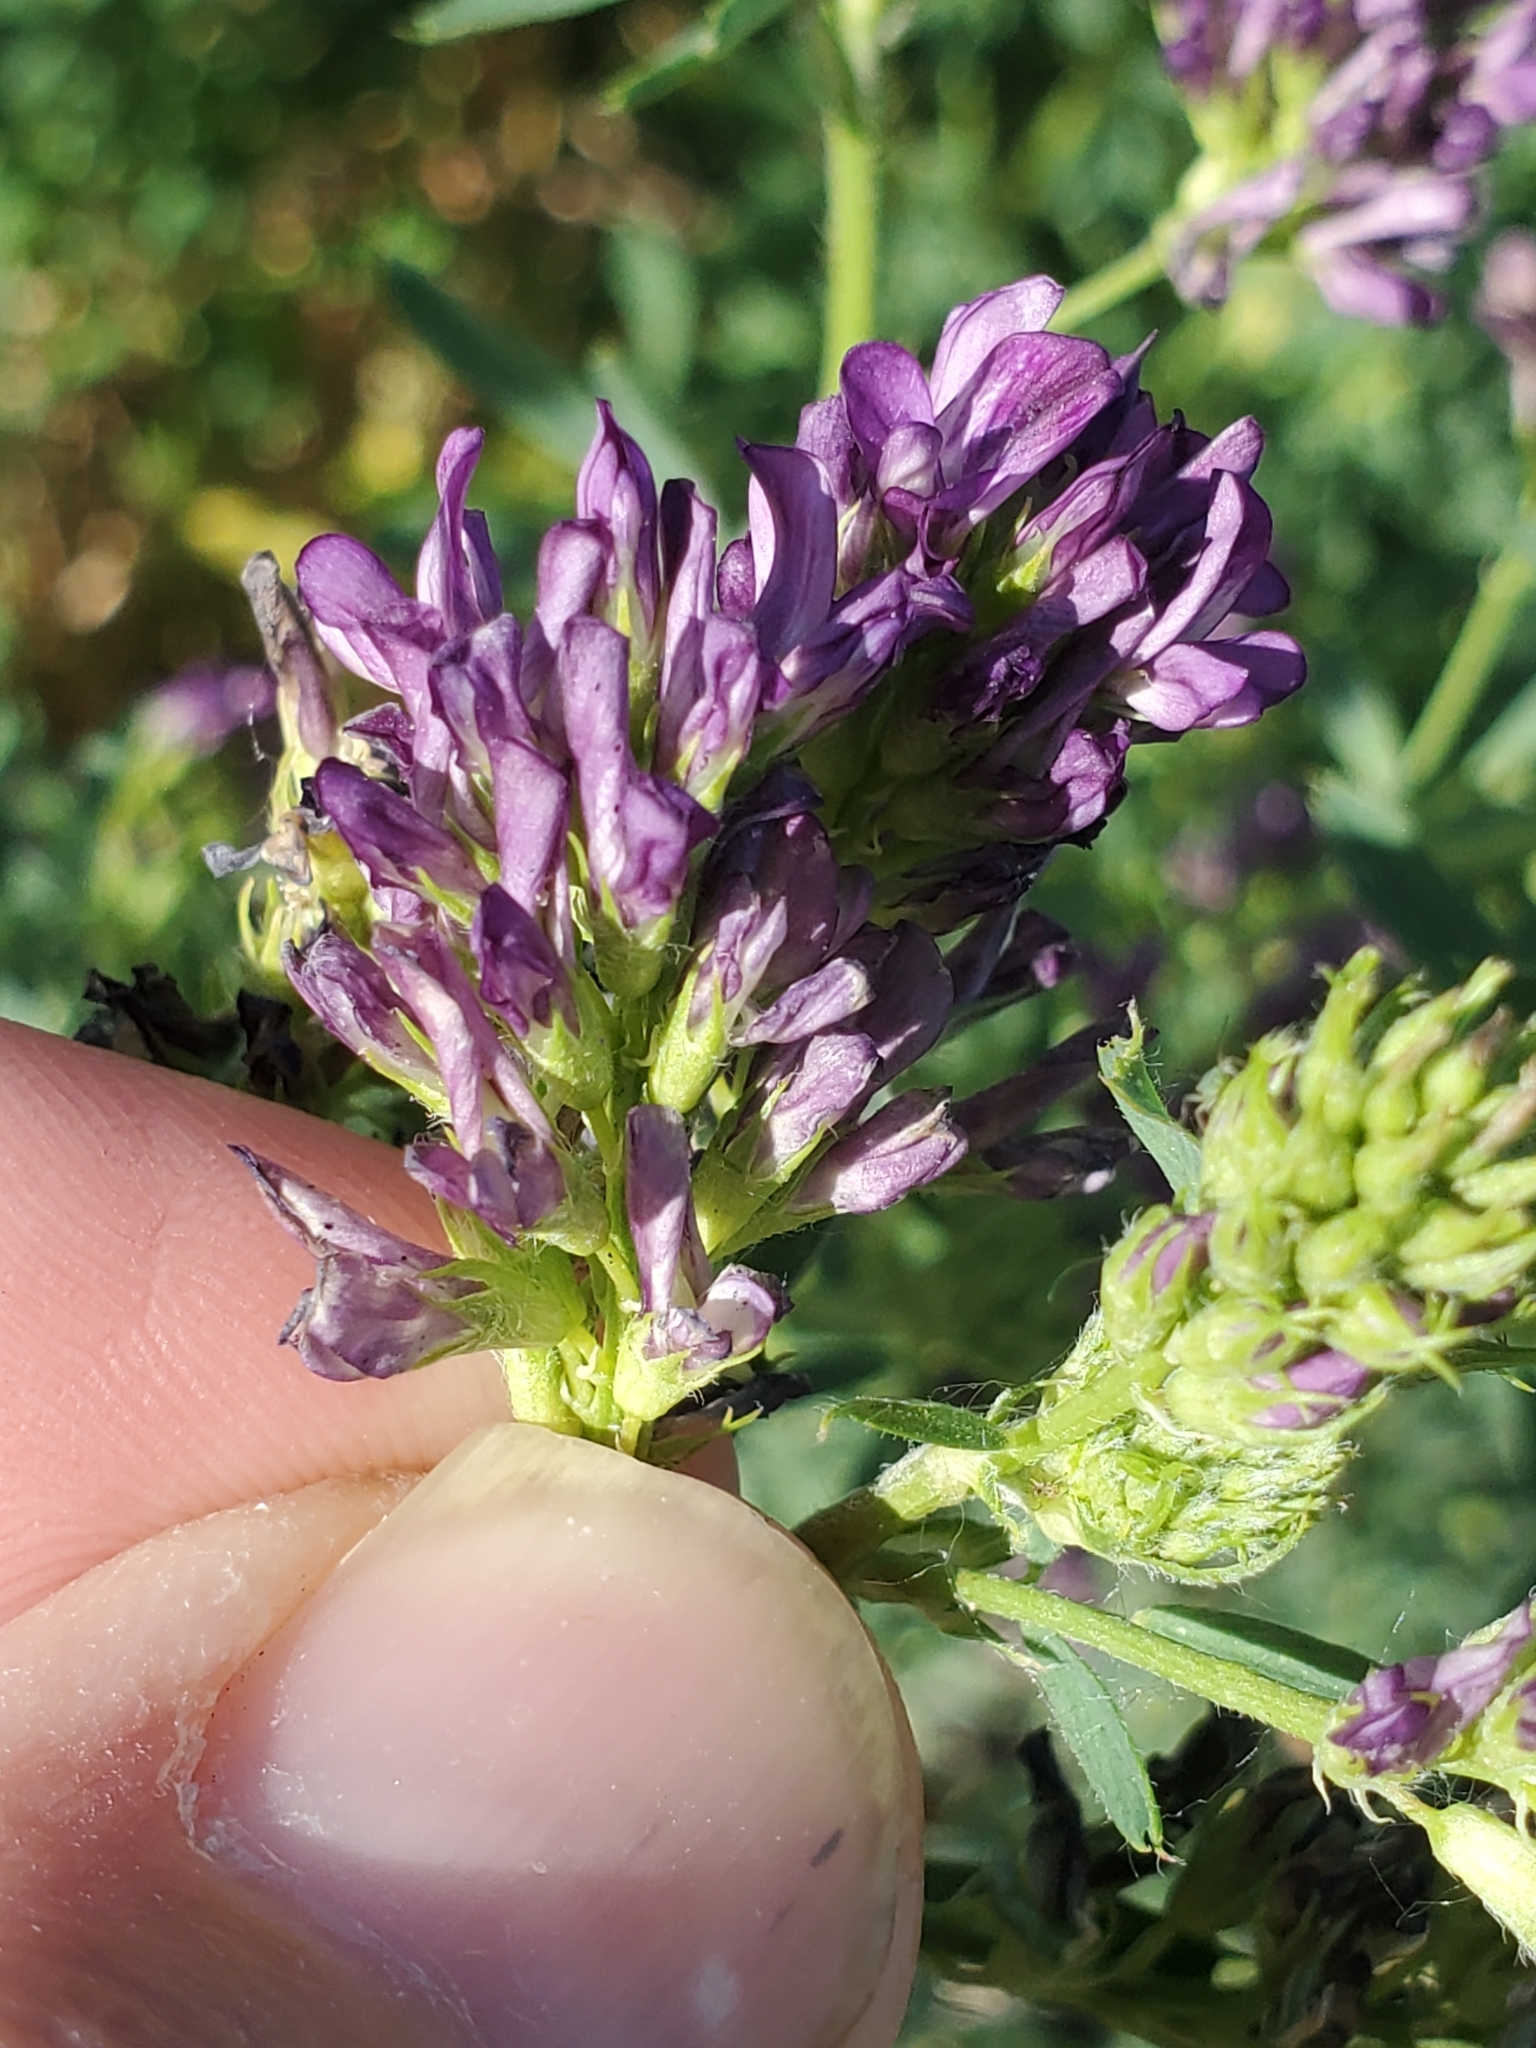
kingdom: Plantae
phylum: Tracheophyta
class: Magnoliopsida
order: Fabales
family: Fabaceae
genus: Medicago
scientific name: Medicago sativa
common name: Alfalfa
